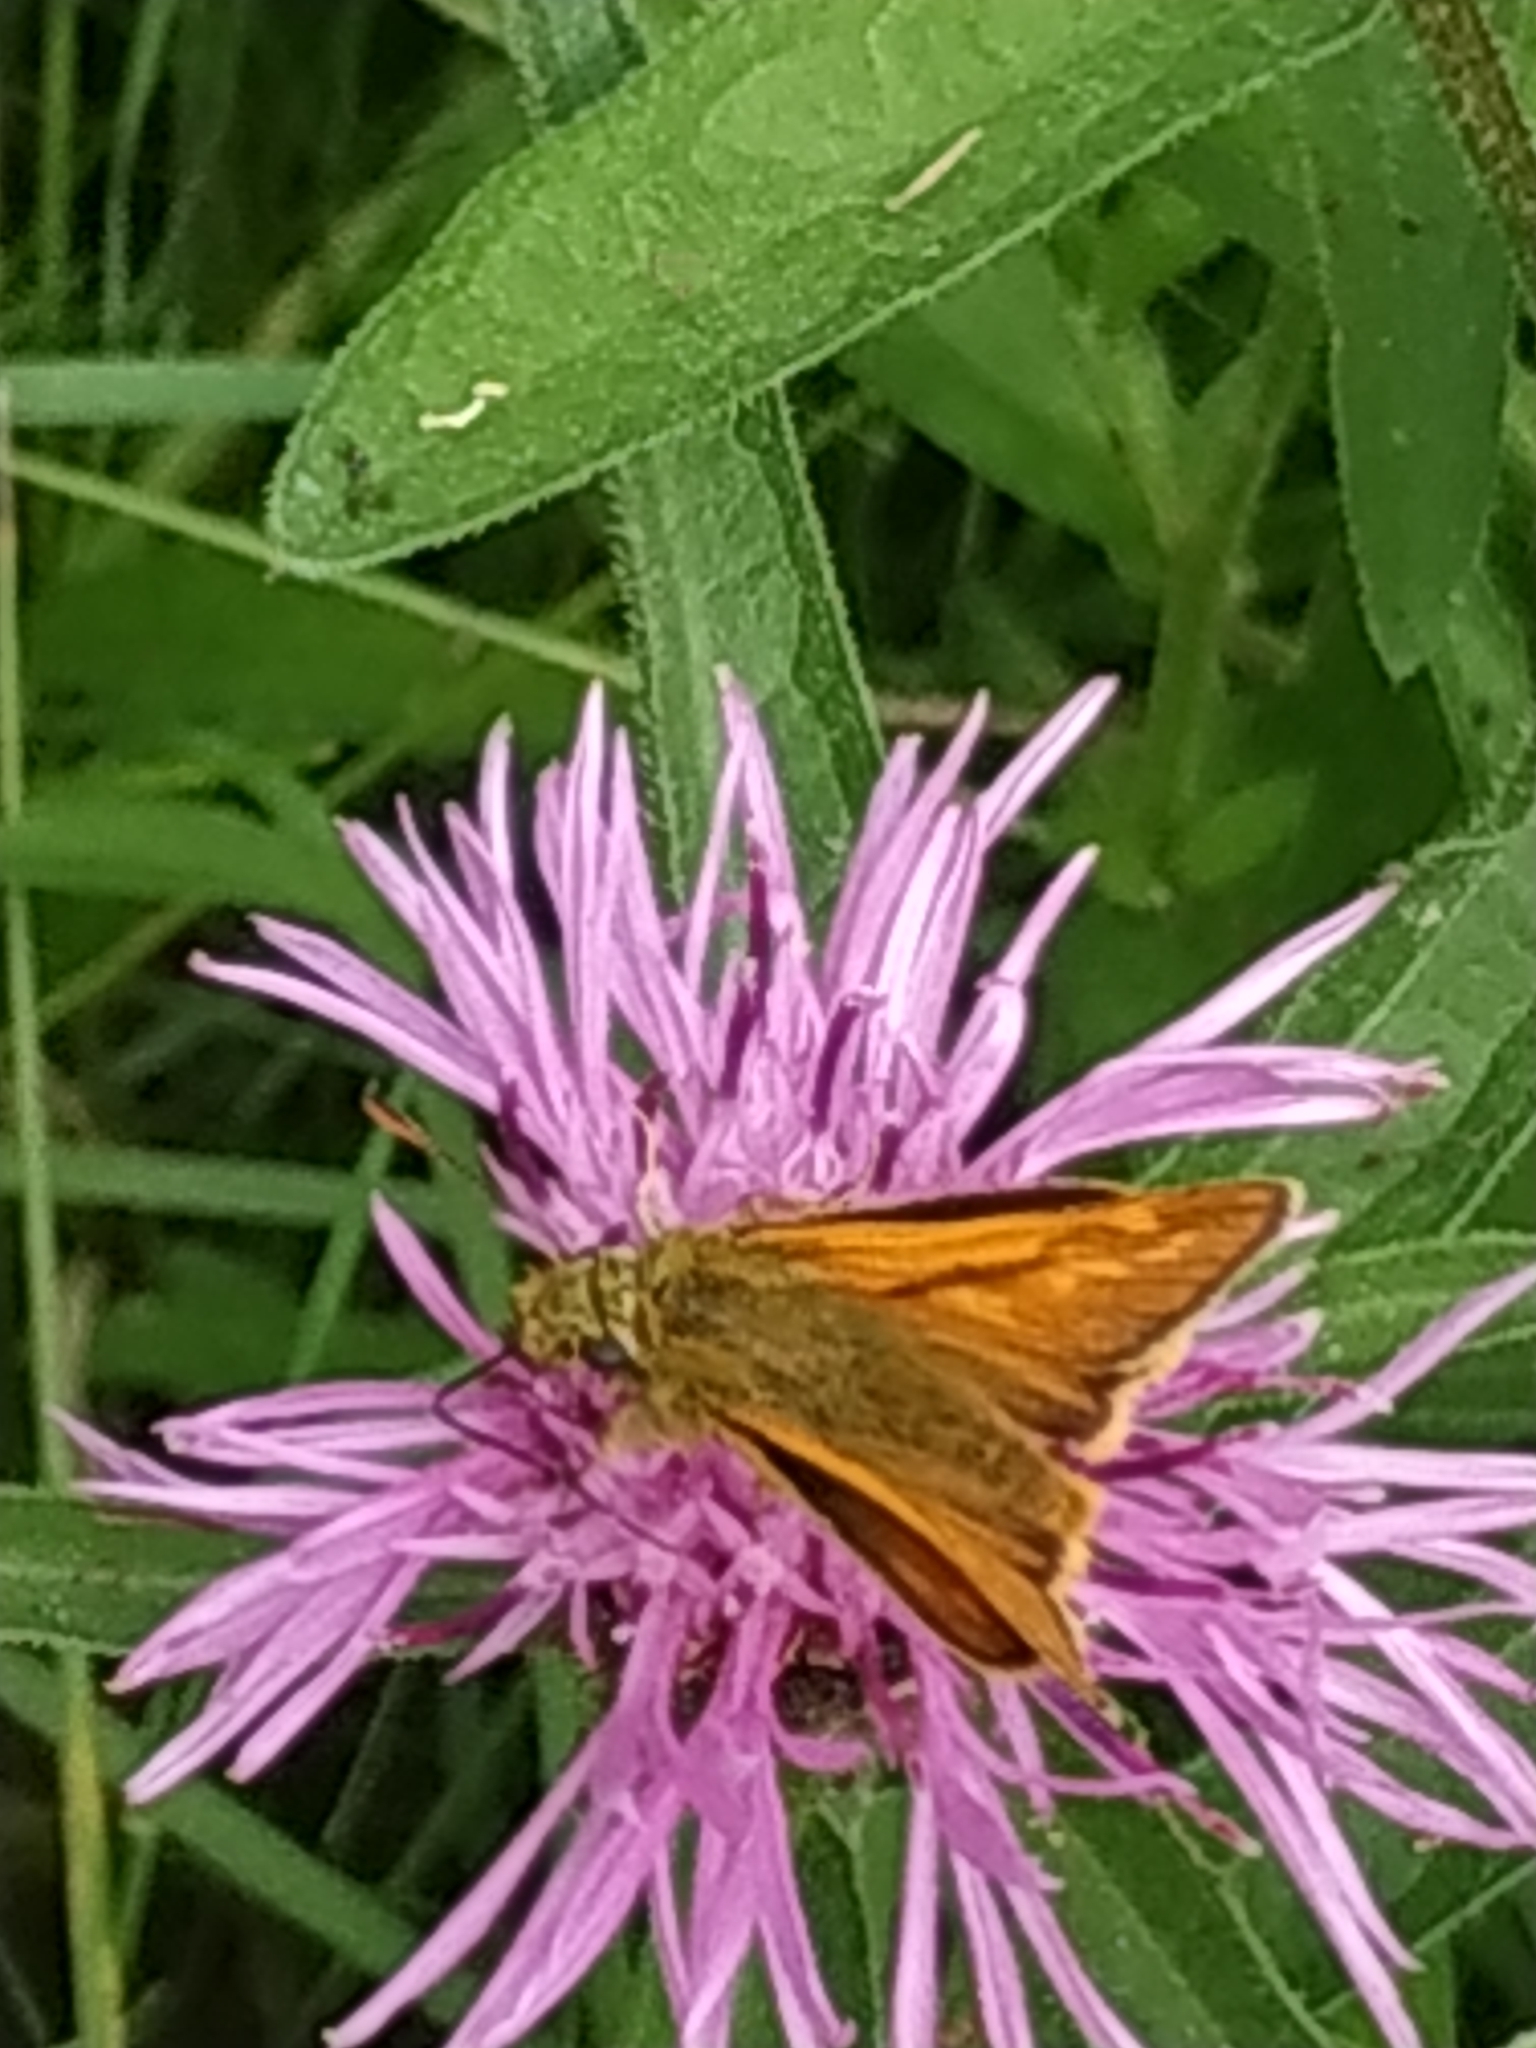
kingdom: Animalia
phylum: Arthropoda
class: Insecta
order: Lepidoptera
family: Hesperiidae
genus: Ochlodes
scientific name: Ochlodes venata
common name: Large skipper
